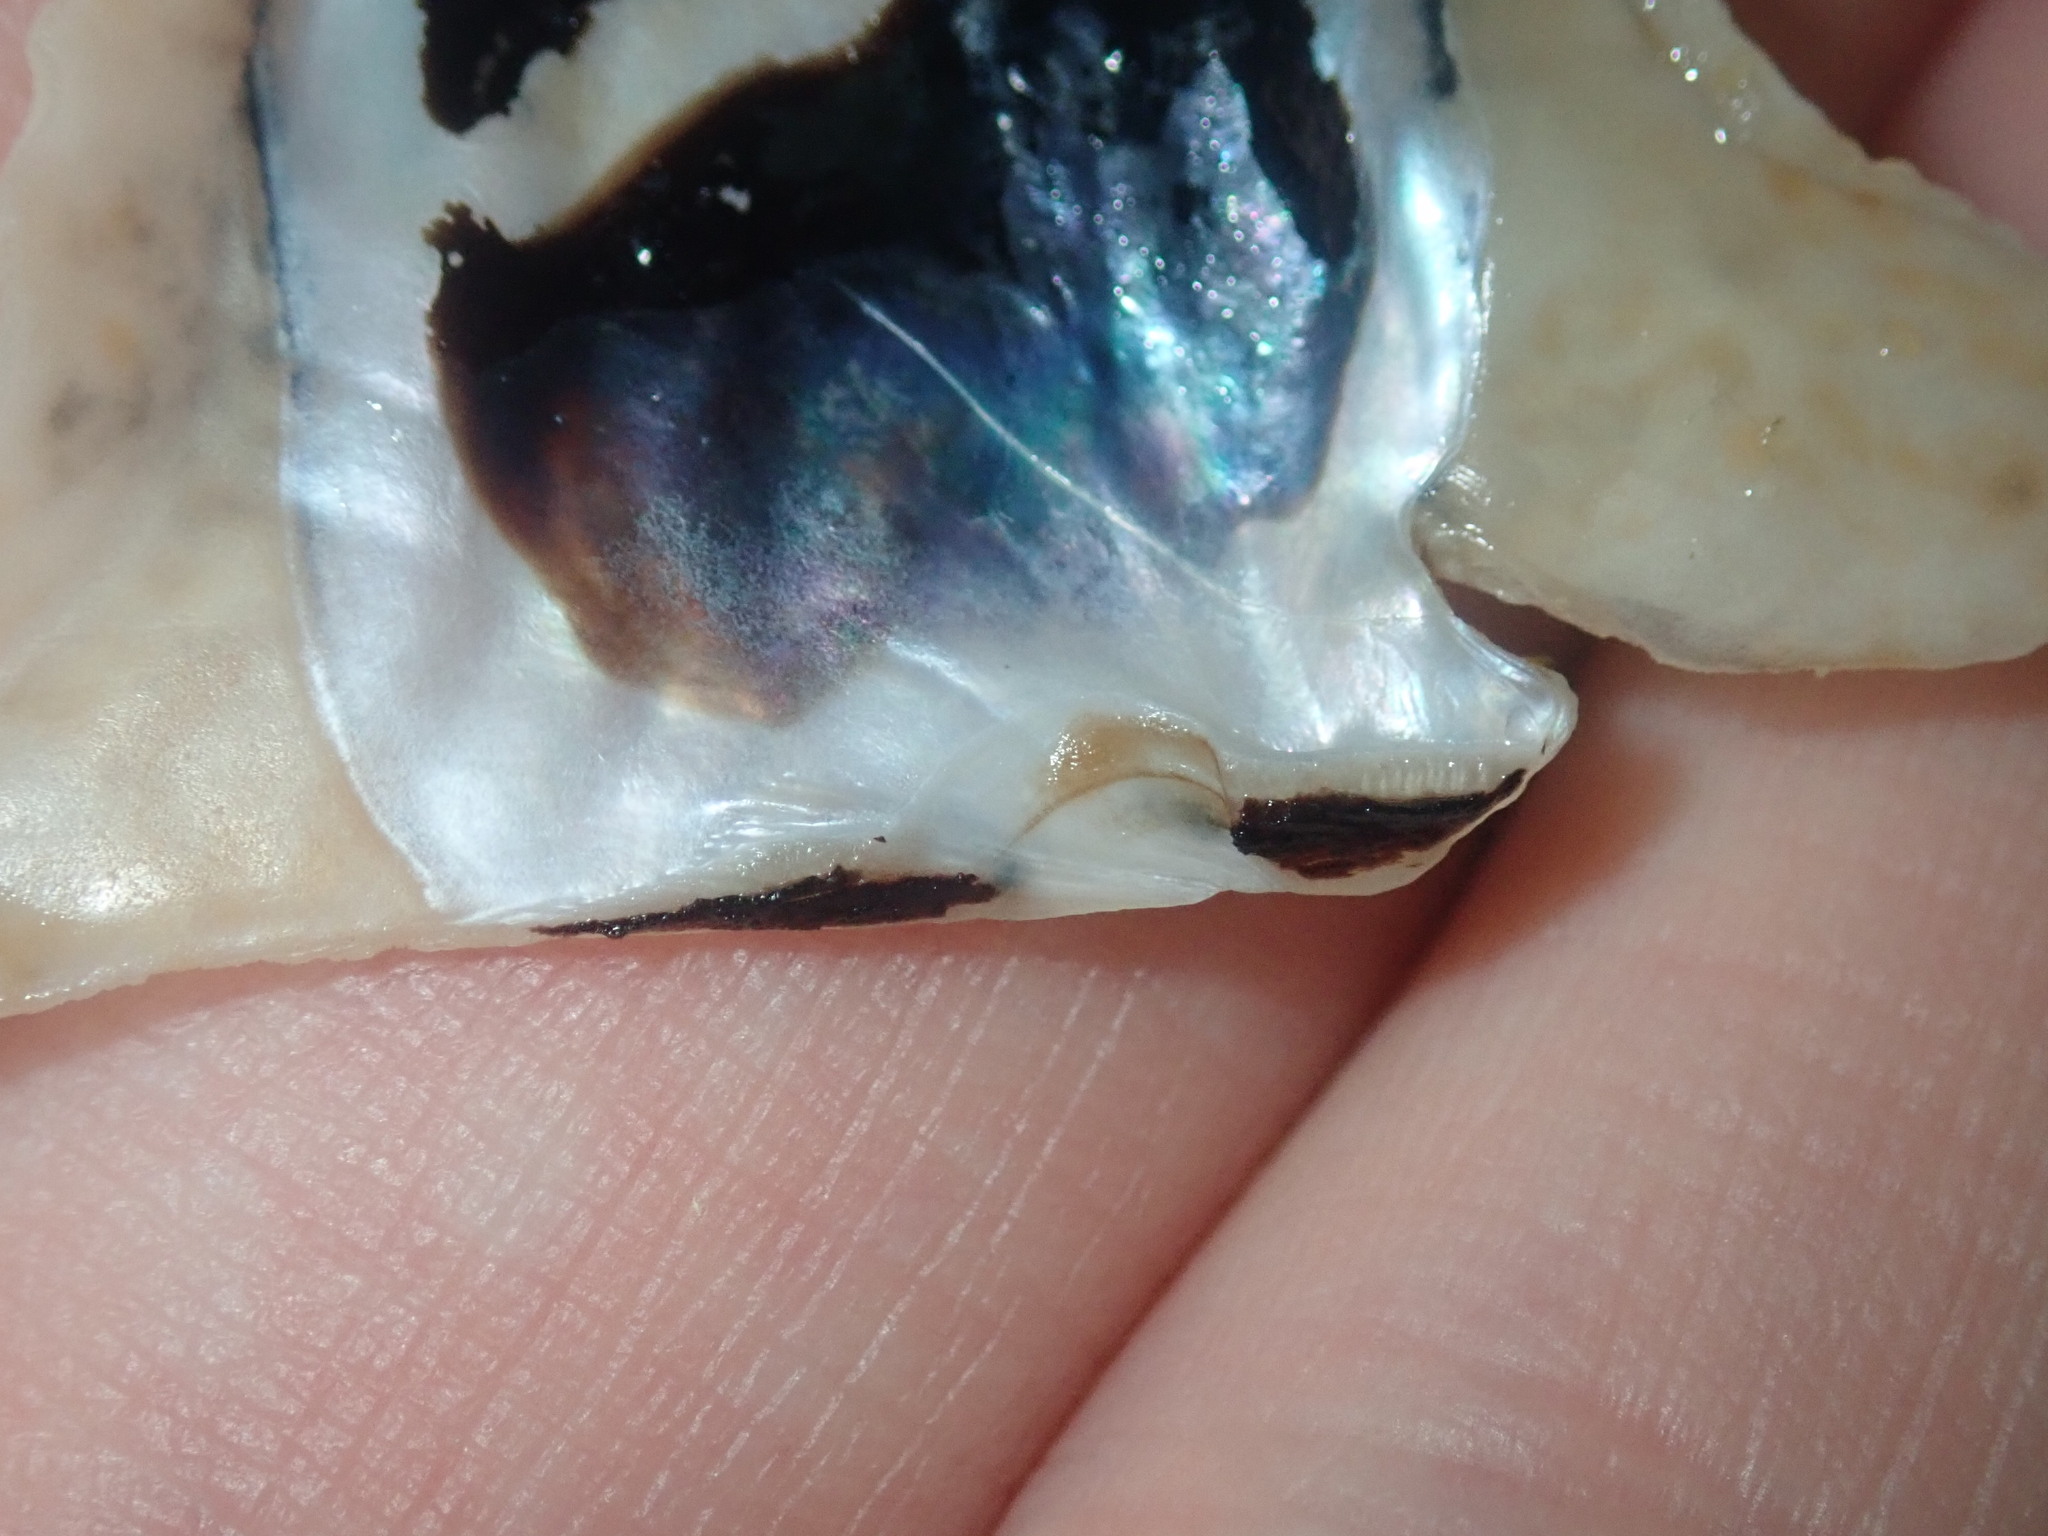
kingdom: Animalia
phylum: Mollusca
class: Bivalvia
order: Ostreida
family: Malleidae
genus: Malleus
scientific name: Malleus albus
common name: American hammer oyster
